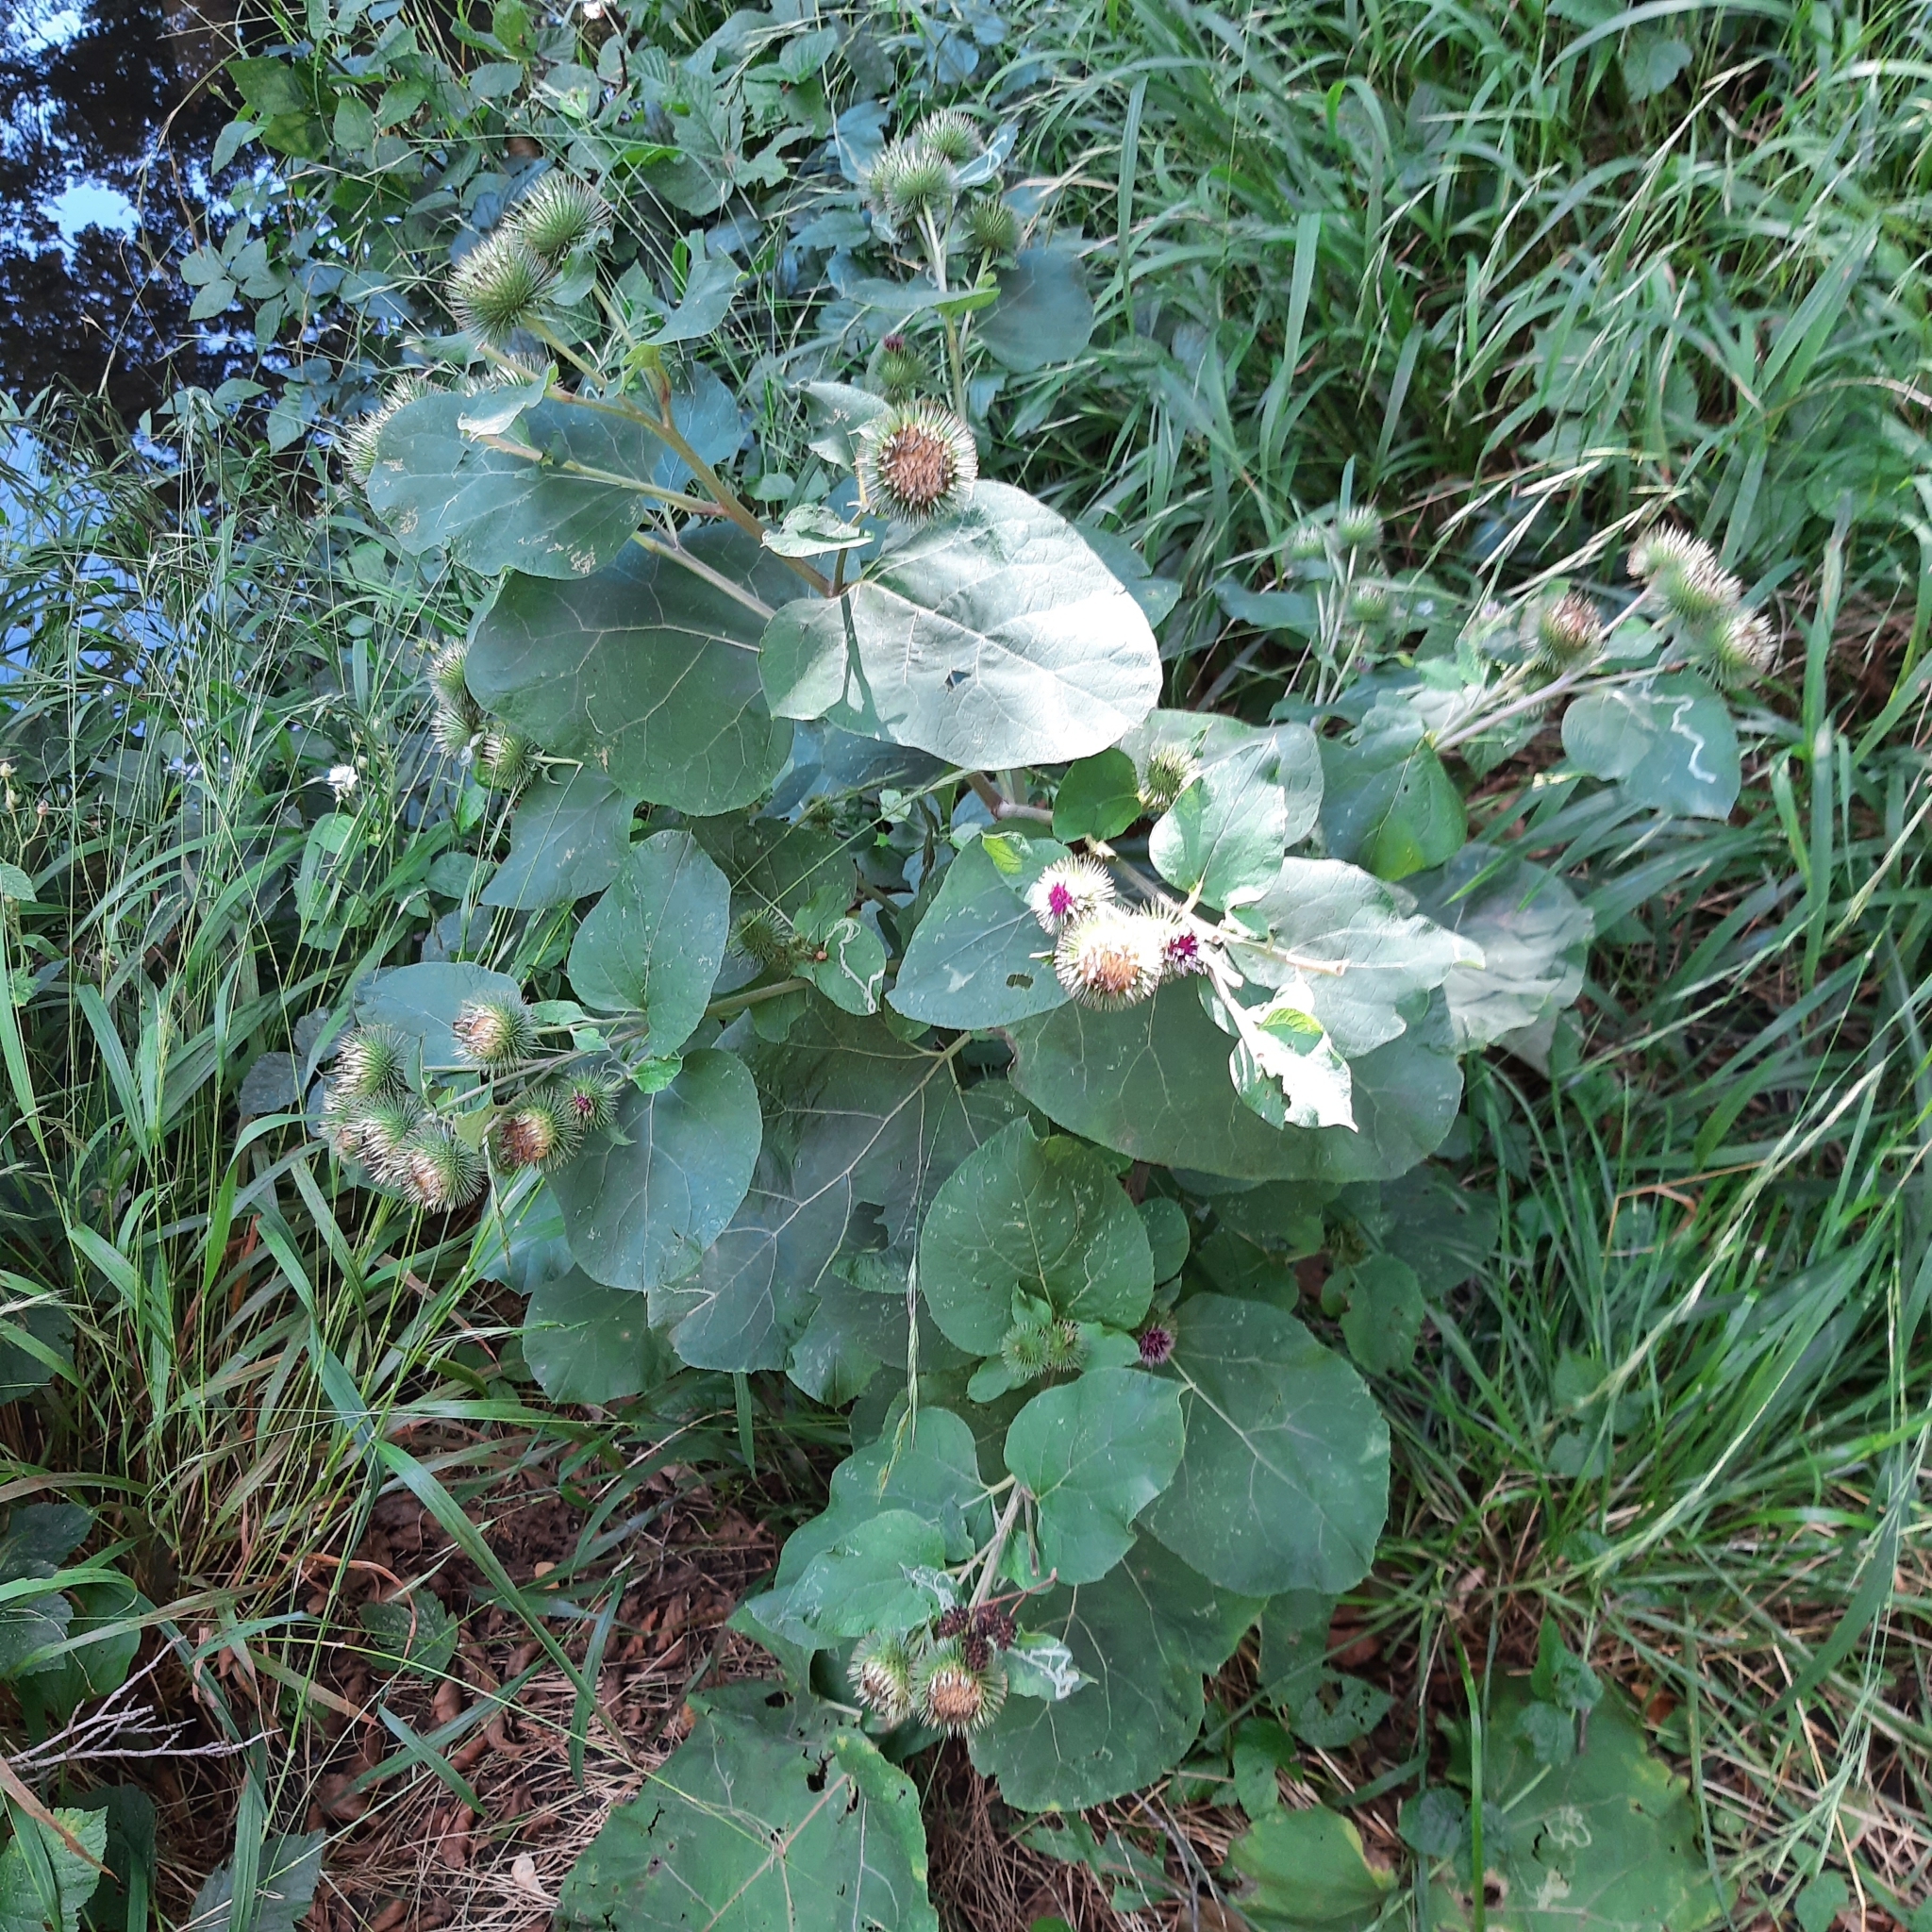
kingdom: Plantae
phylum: Tracheophyta
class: Magnoliopsida
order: Asterales
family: Asteraceae
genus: Arctium
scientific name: Arctium lappa
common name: Greater burdock
